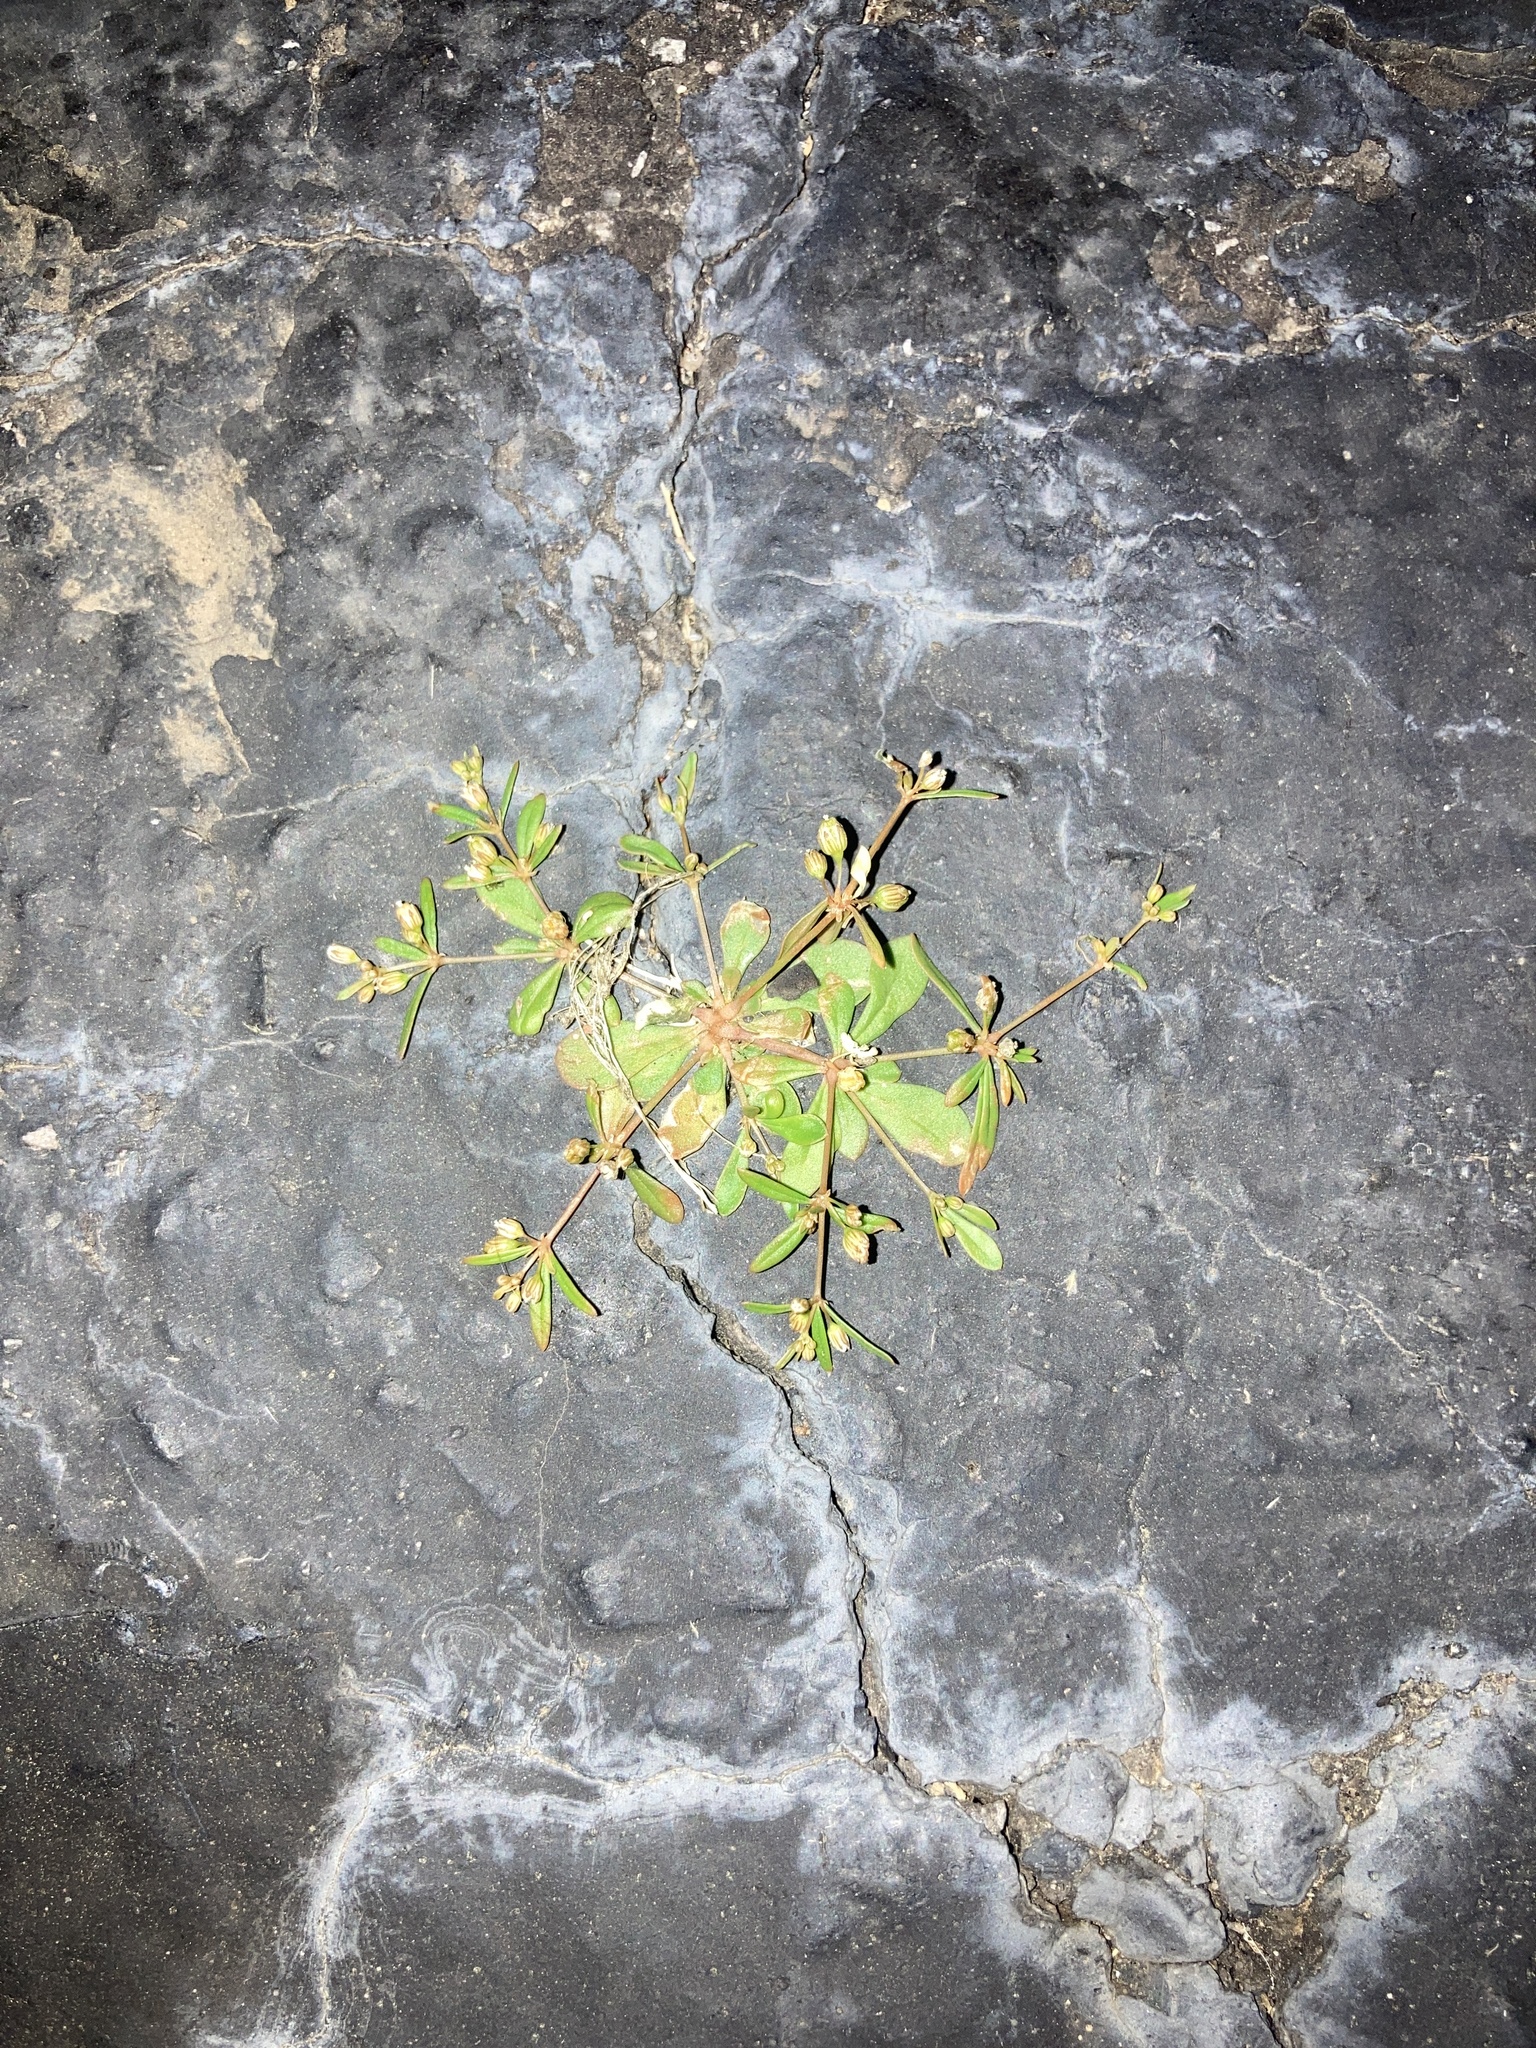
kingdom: Plantae
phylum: Tracheophyta
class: Magnoliopsida
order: Caryophyllales
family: Molluginaceae
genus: Mollugo
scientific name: Mollugo verticillata
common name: Green carpetweed
